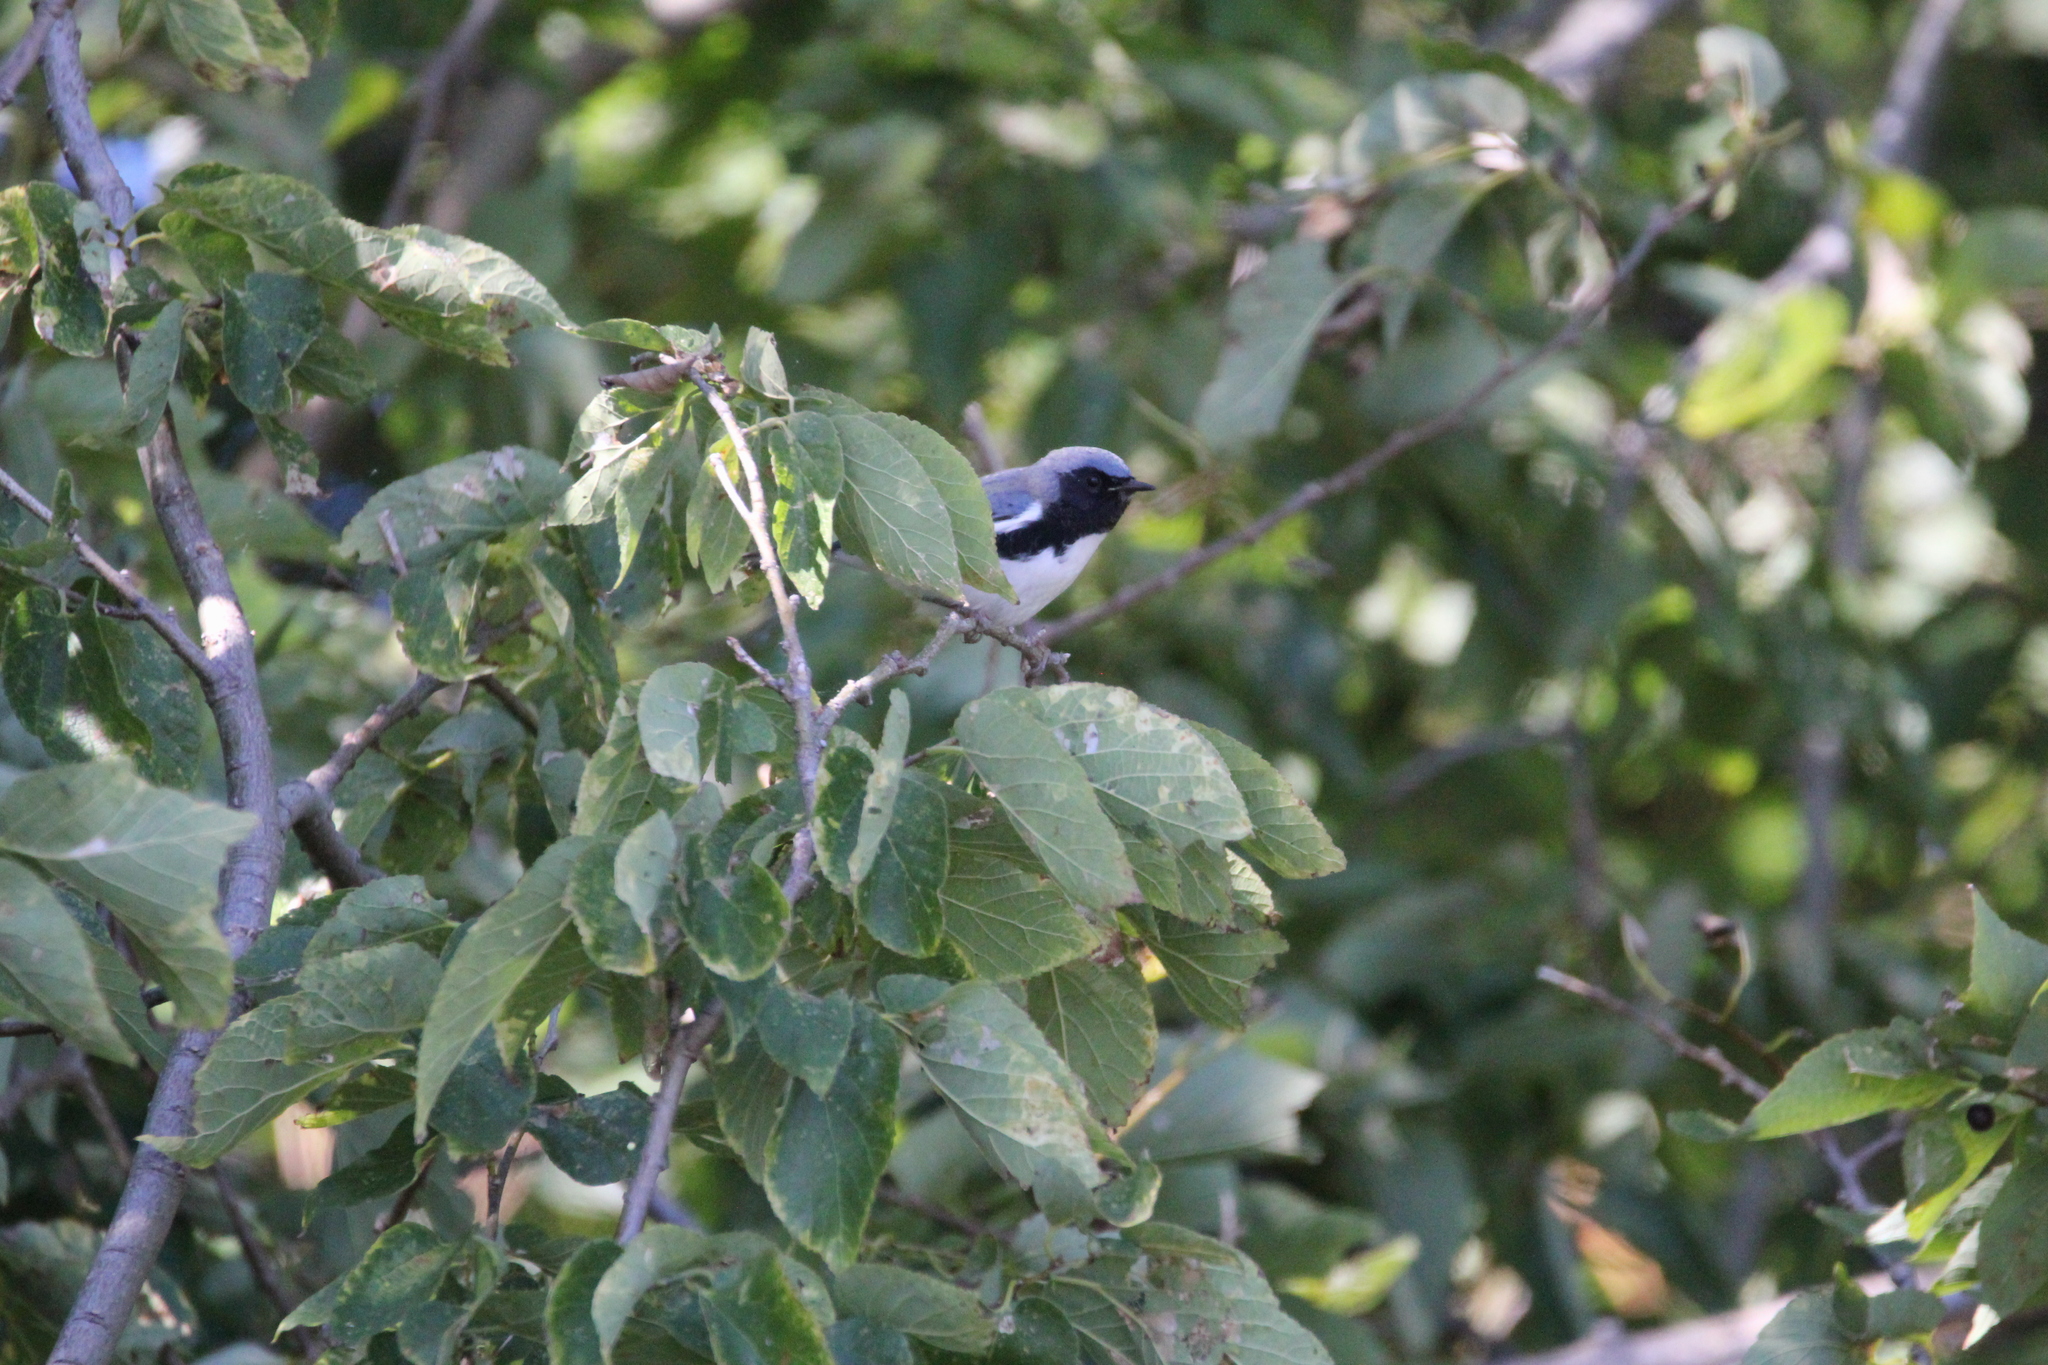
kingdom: Animalia
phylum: Chordata
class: Aves
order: Passeriformes
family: Parulidae
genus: Setophaga
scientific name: Setophaga caerulescens
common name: Black-throated blue warbler
